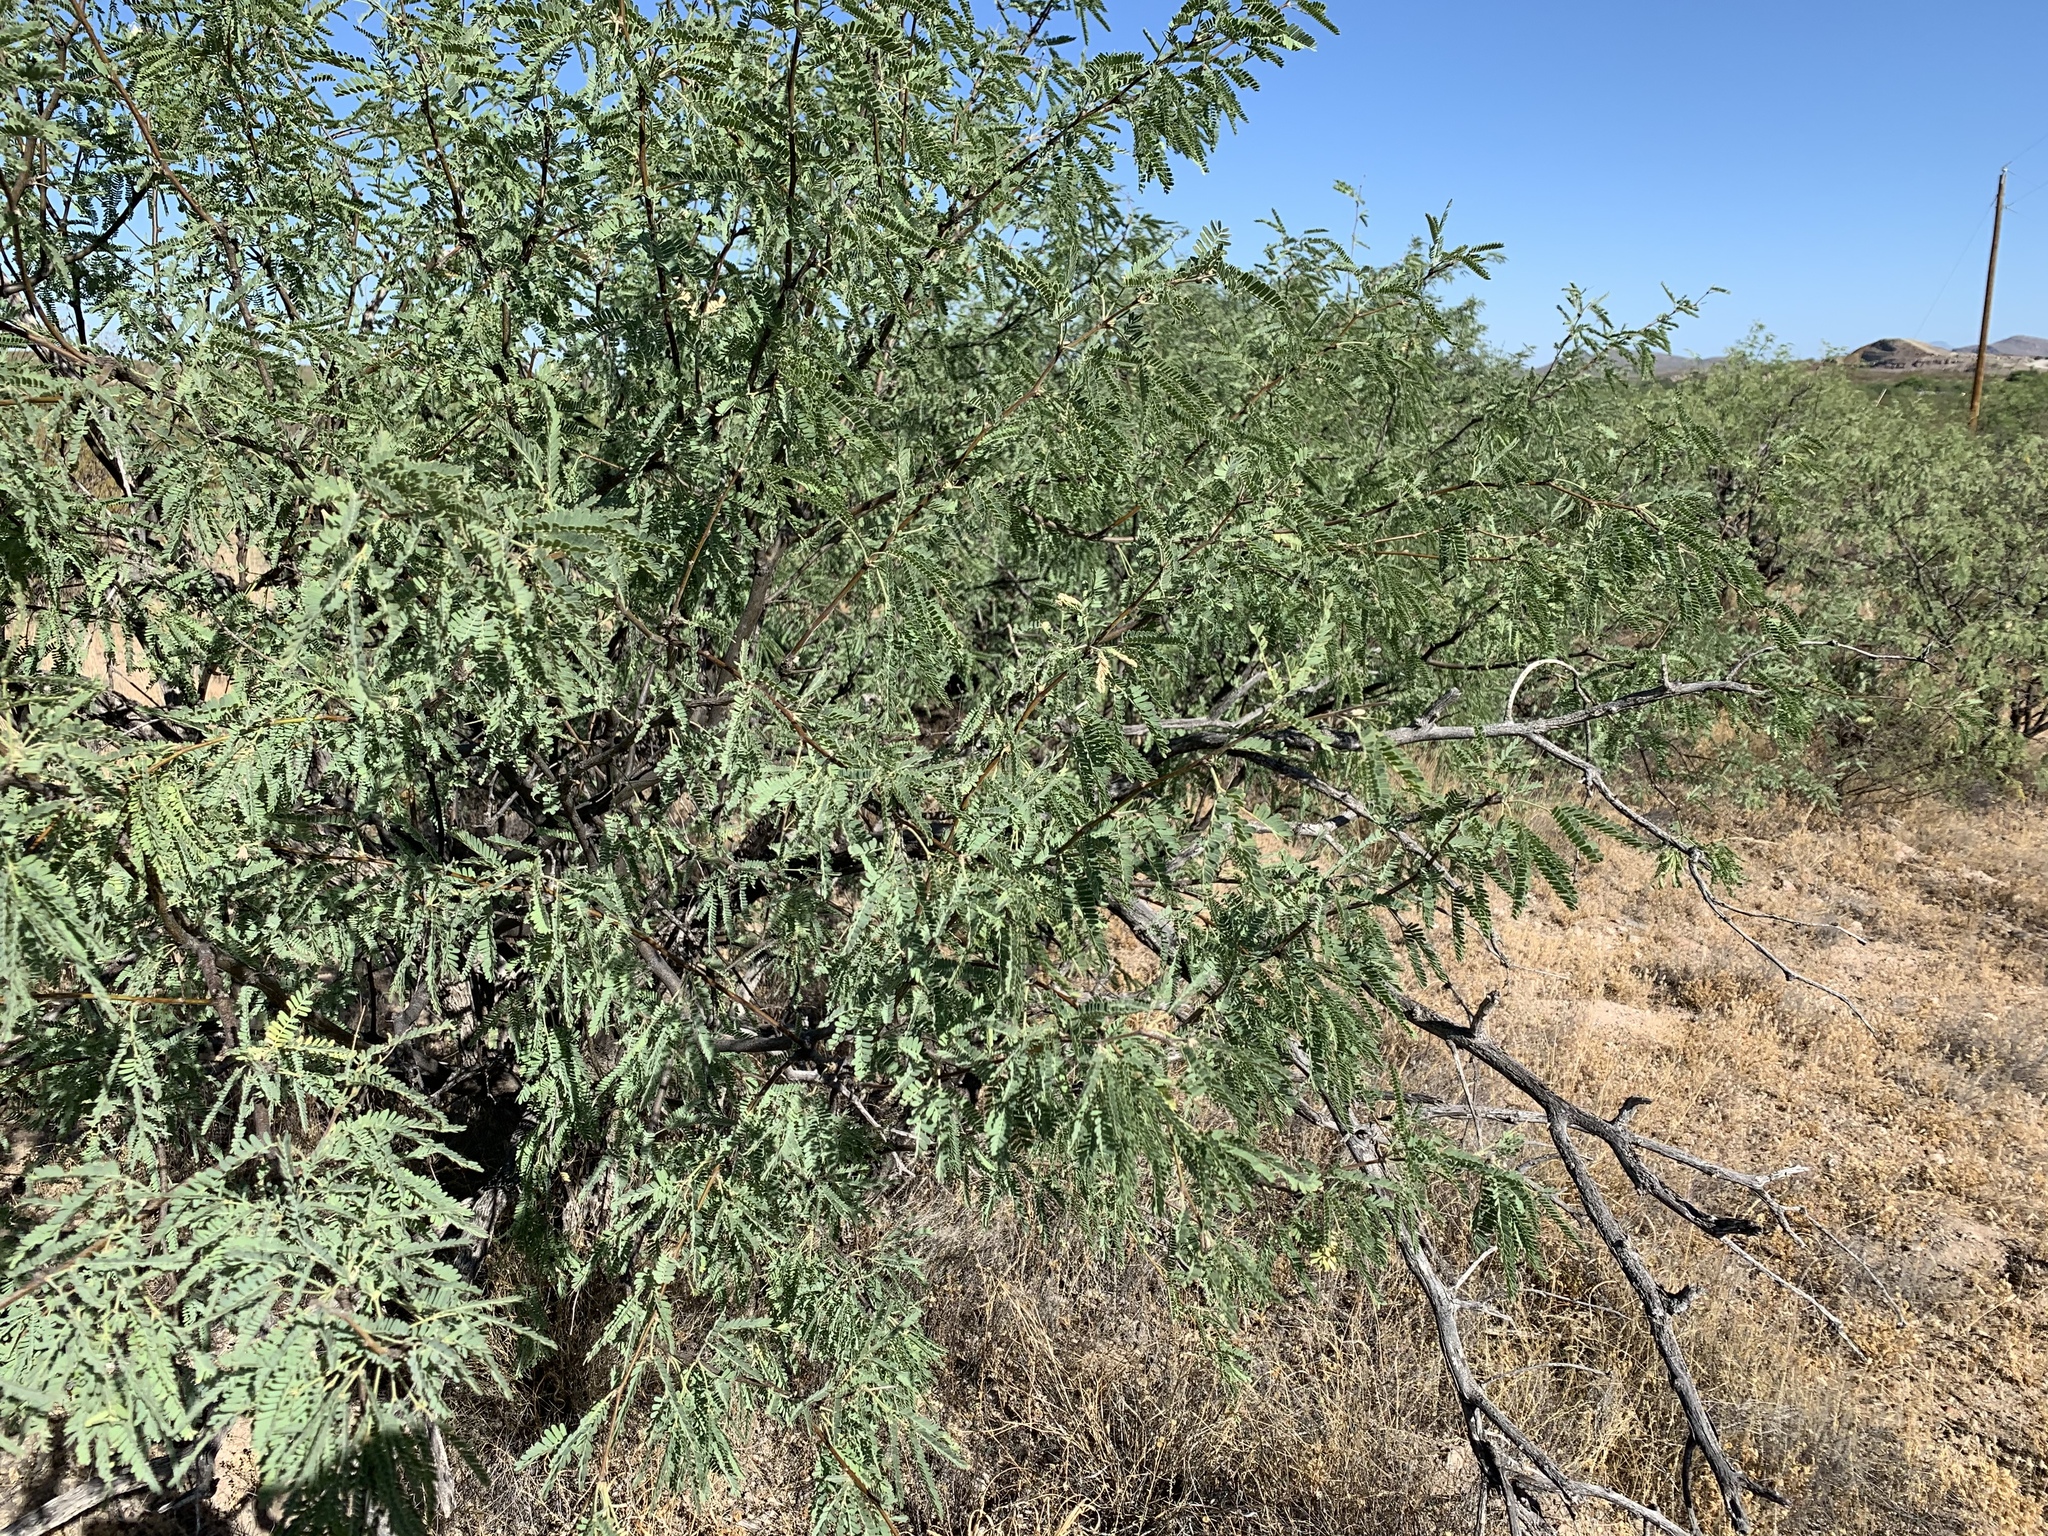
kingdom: Plantae
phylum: Tracheophyta
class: Magnoliopsida
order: Fabales
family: Fabaceae
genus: Prosopis
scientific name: Prosopis velutina
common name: Velvet mesquite
